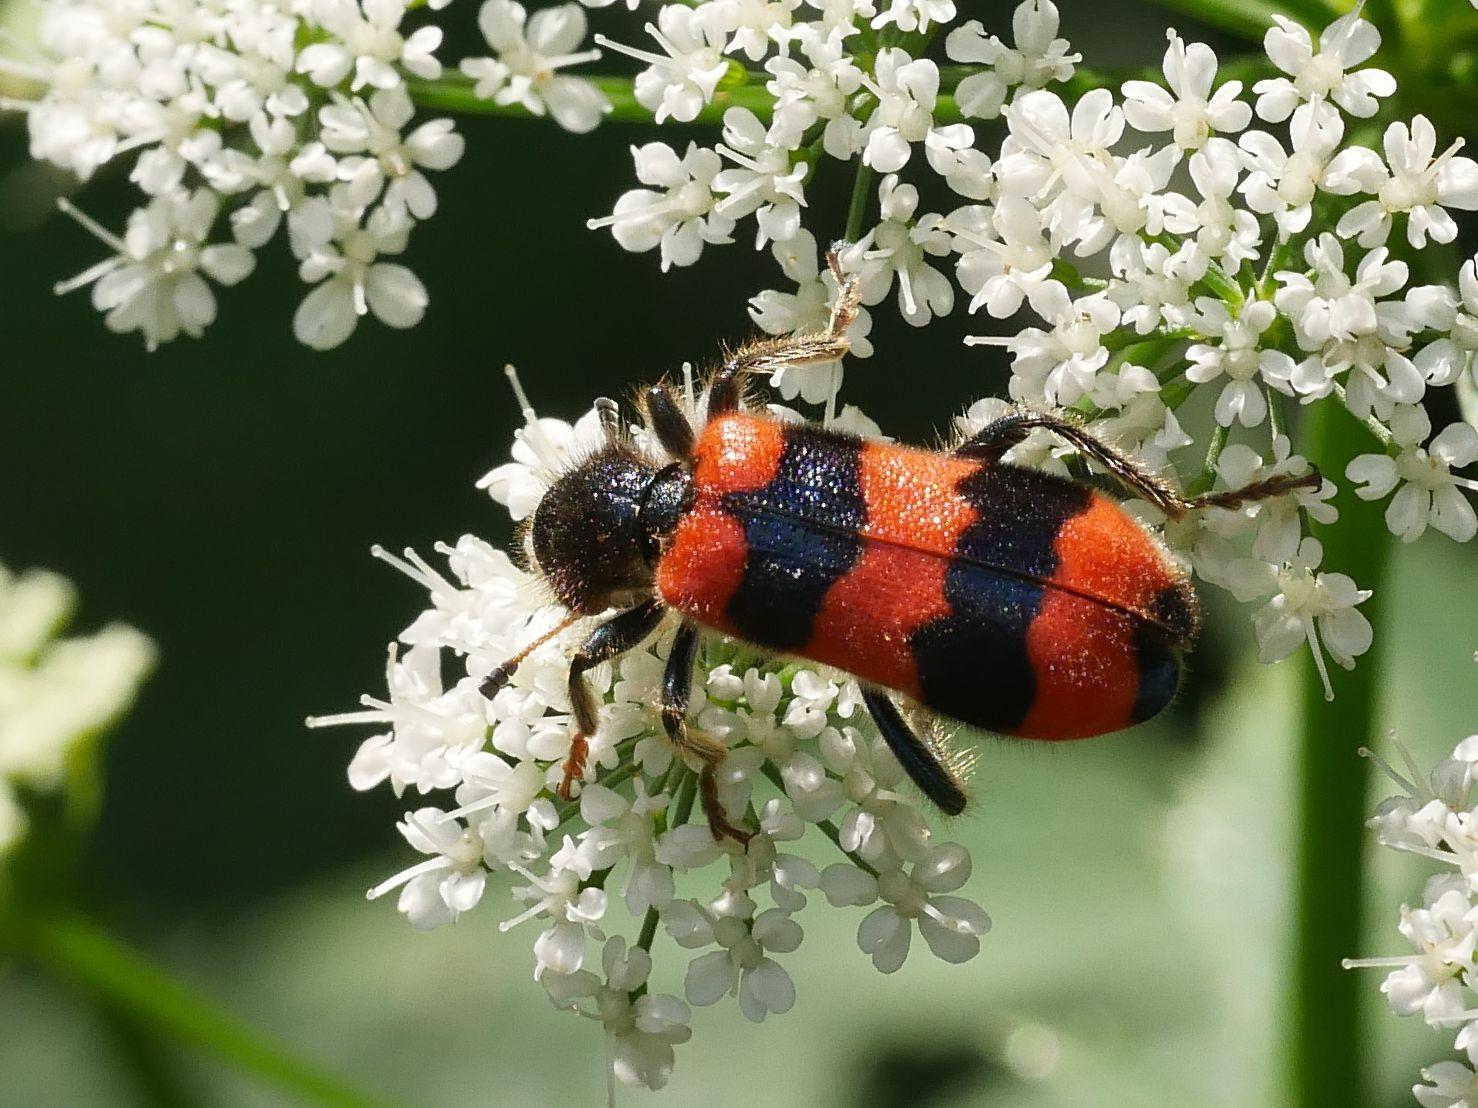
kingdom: Animalia
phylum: Arthropoda
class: Insecta
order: Coleoptera
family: Cleridae
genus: Trichodes
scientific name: Trichodes apiarius
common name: Bee-eating beetle
